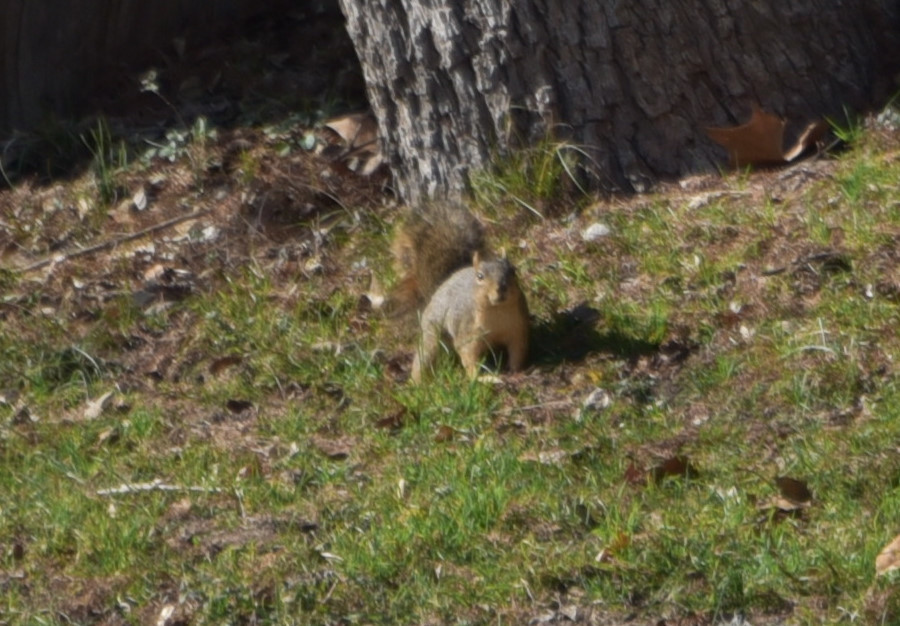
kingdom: Animalia
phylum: Chordata
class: Mammalia
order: Rodentia
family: Sciuridae
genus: Sciurus
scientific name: Sciurus niger
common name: Fox squirrel
